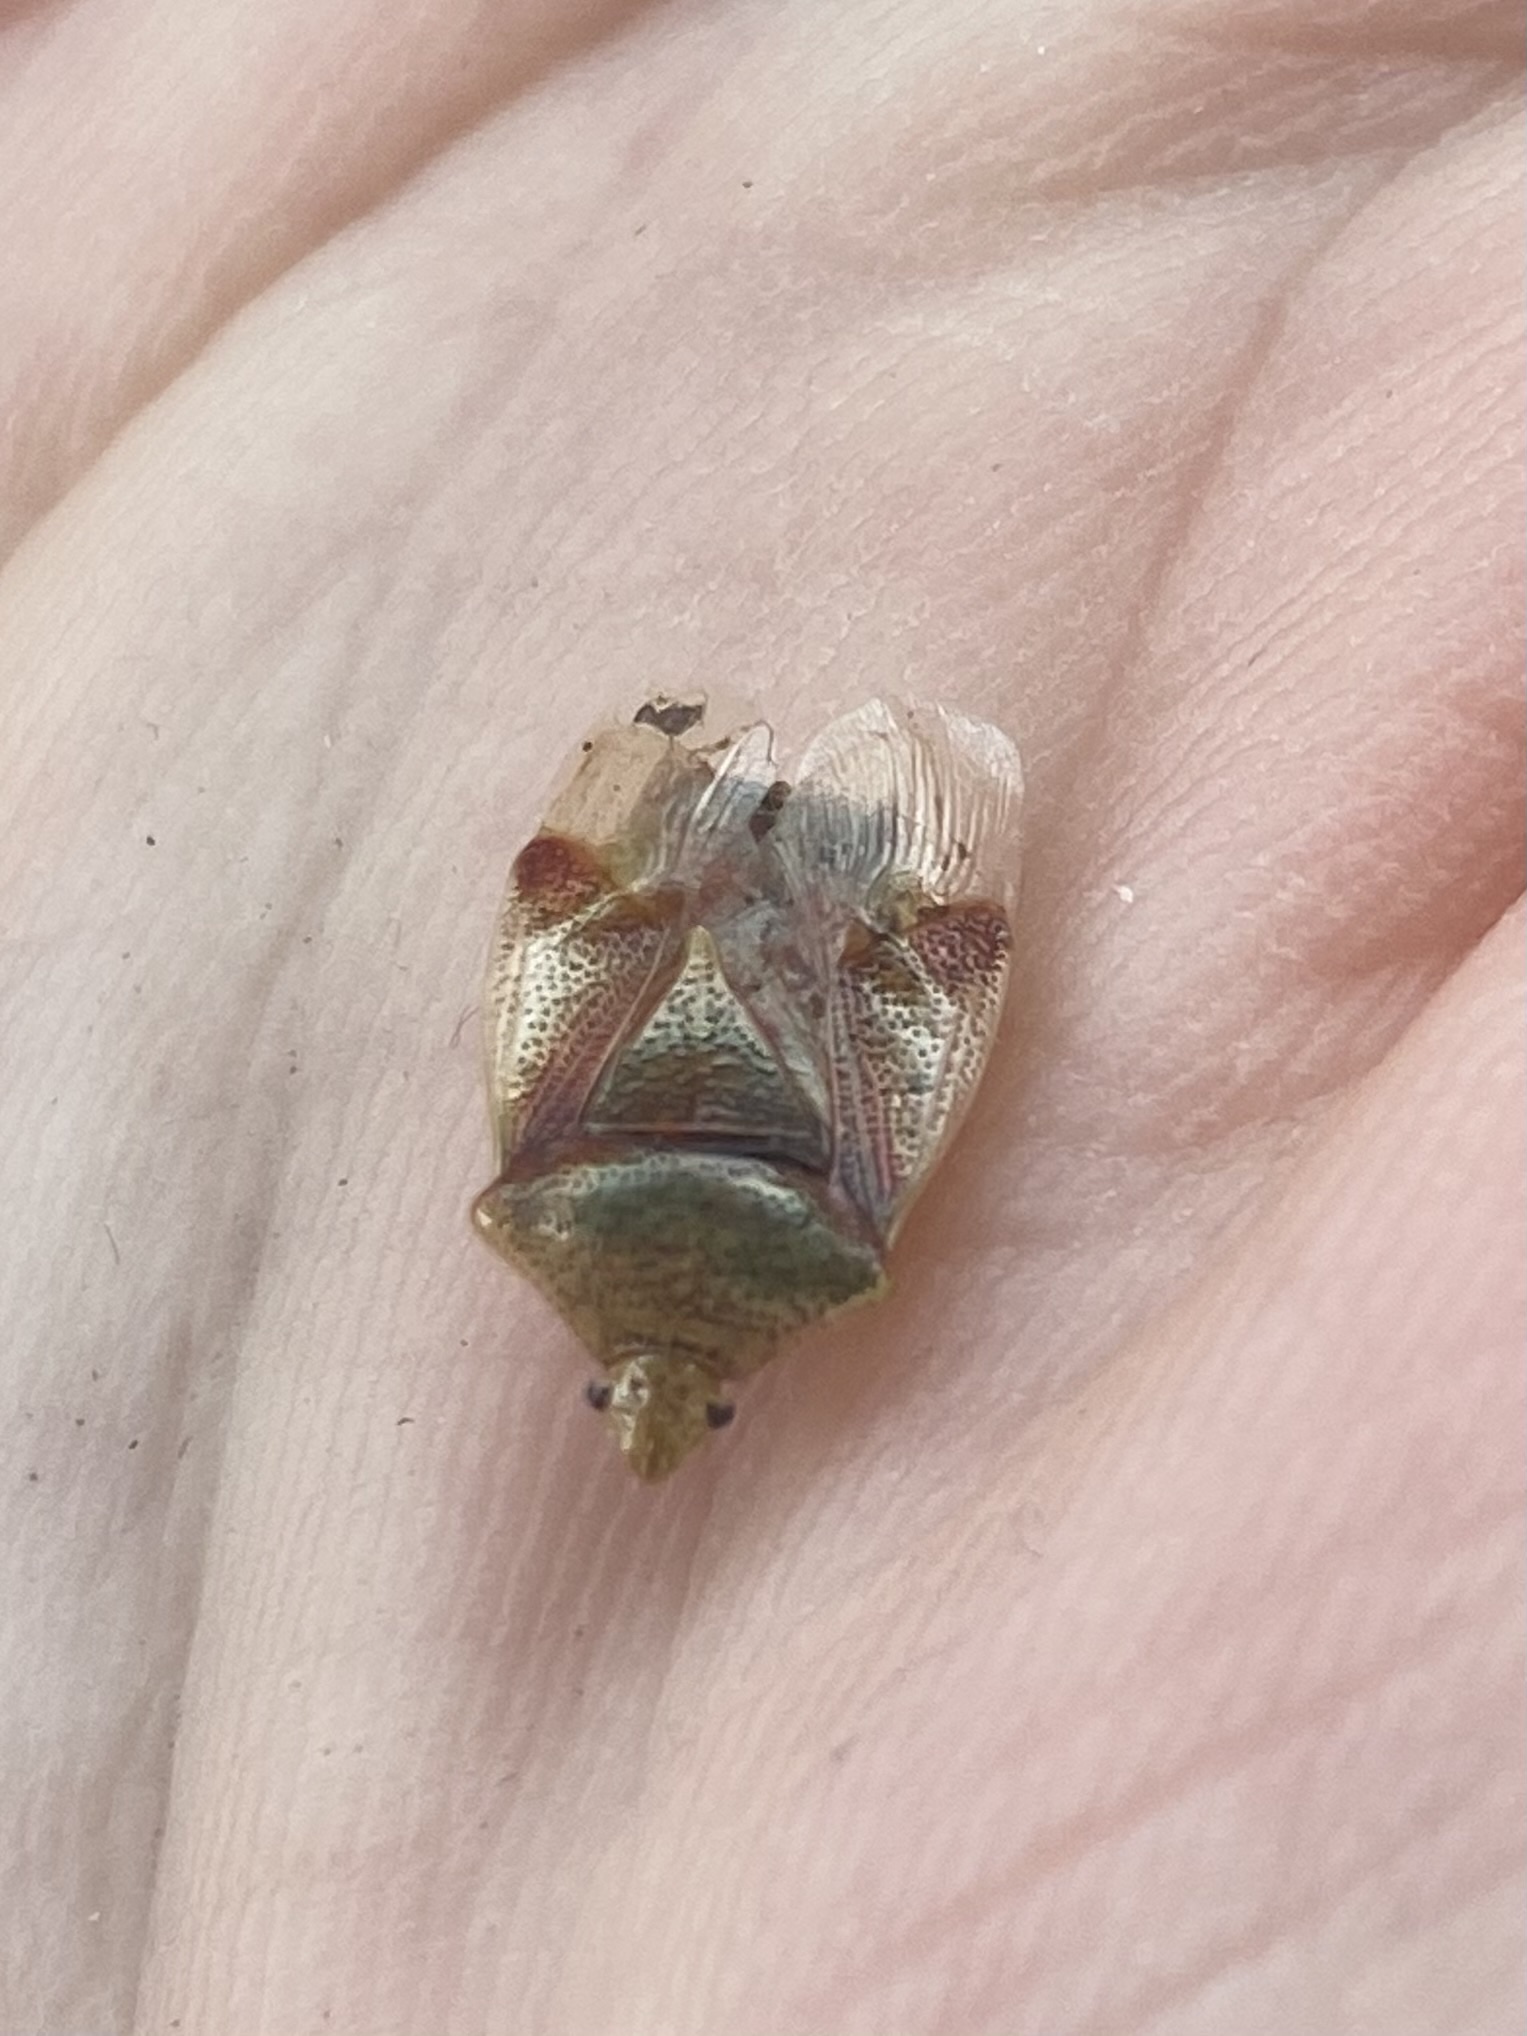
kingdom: Animalia
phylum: Arthropoda
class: Insecta
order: Hemiptera
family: Acanthosomatidae
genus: Elasmostethus
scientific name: Elasmostethus cruciatus
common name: Red-cross shield bug
